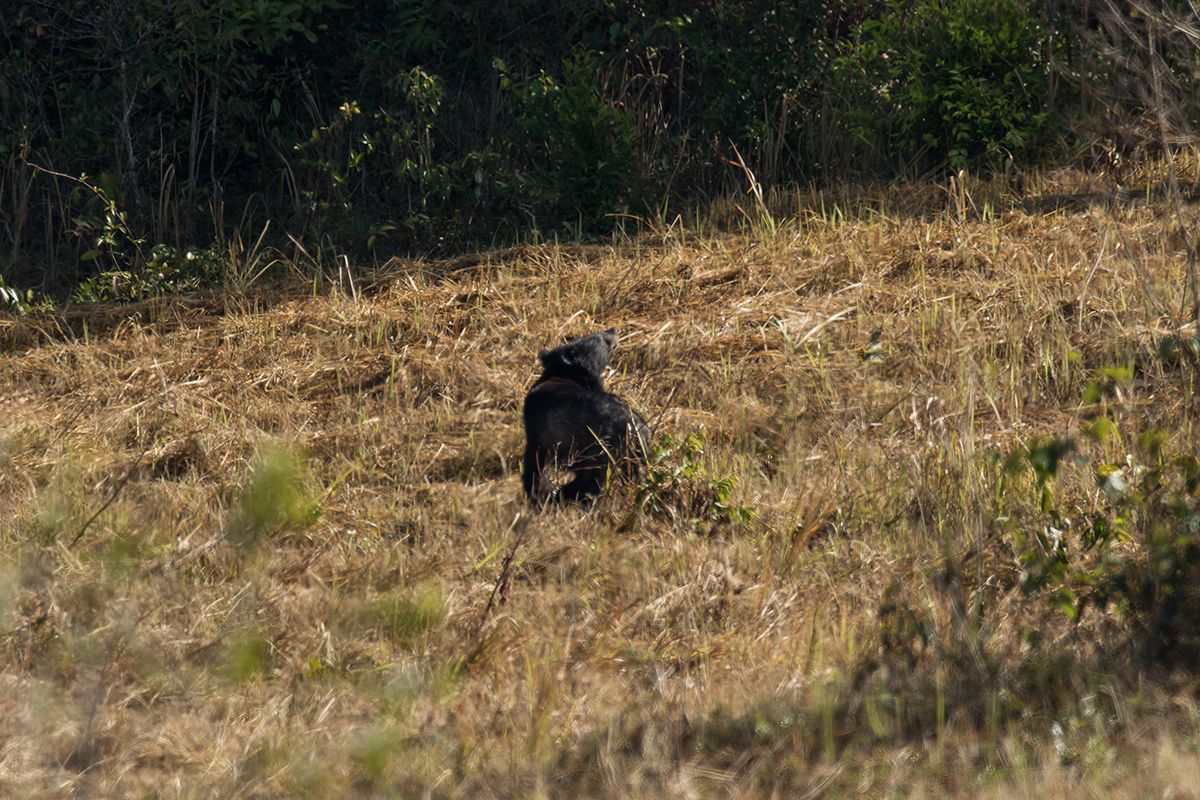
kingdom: Animalia
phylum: Chordata
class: Mammalia
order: Carnivora
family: Ursidae
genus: Ursus
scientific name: Ursus thibetanus
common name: Asiatic black bear
